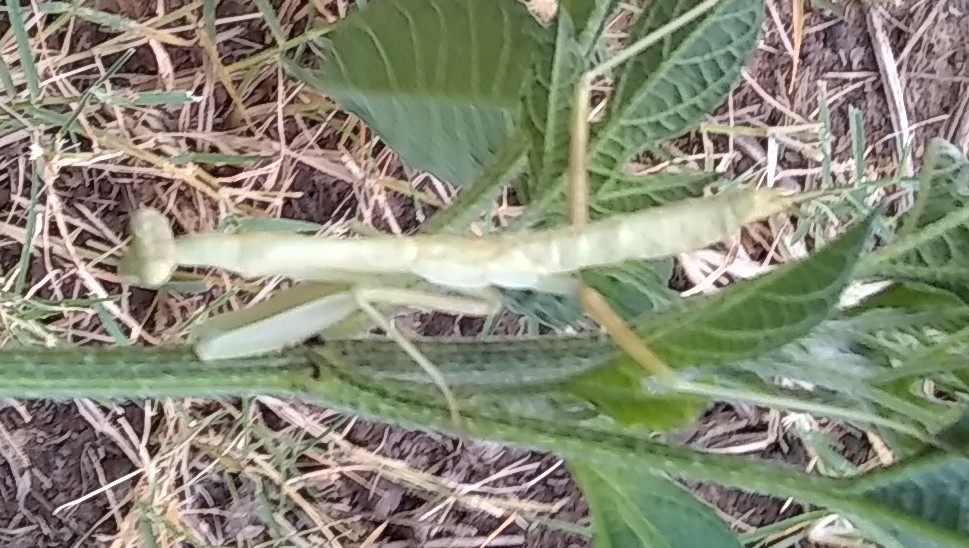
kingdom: Animalia
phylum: Arthropoda
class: Insecta
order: Mantodea
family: Mantidae
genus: Stagmomantis
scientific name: Stagmomantis carolina
